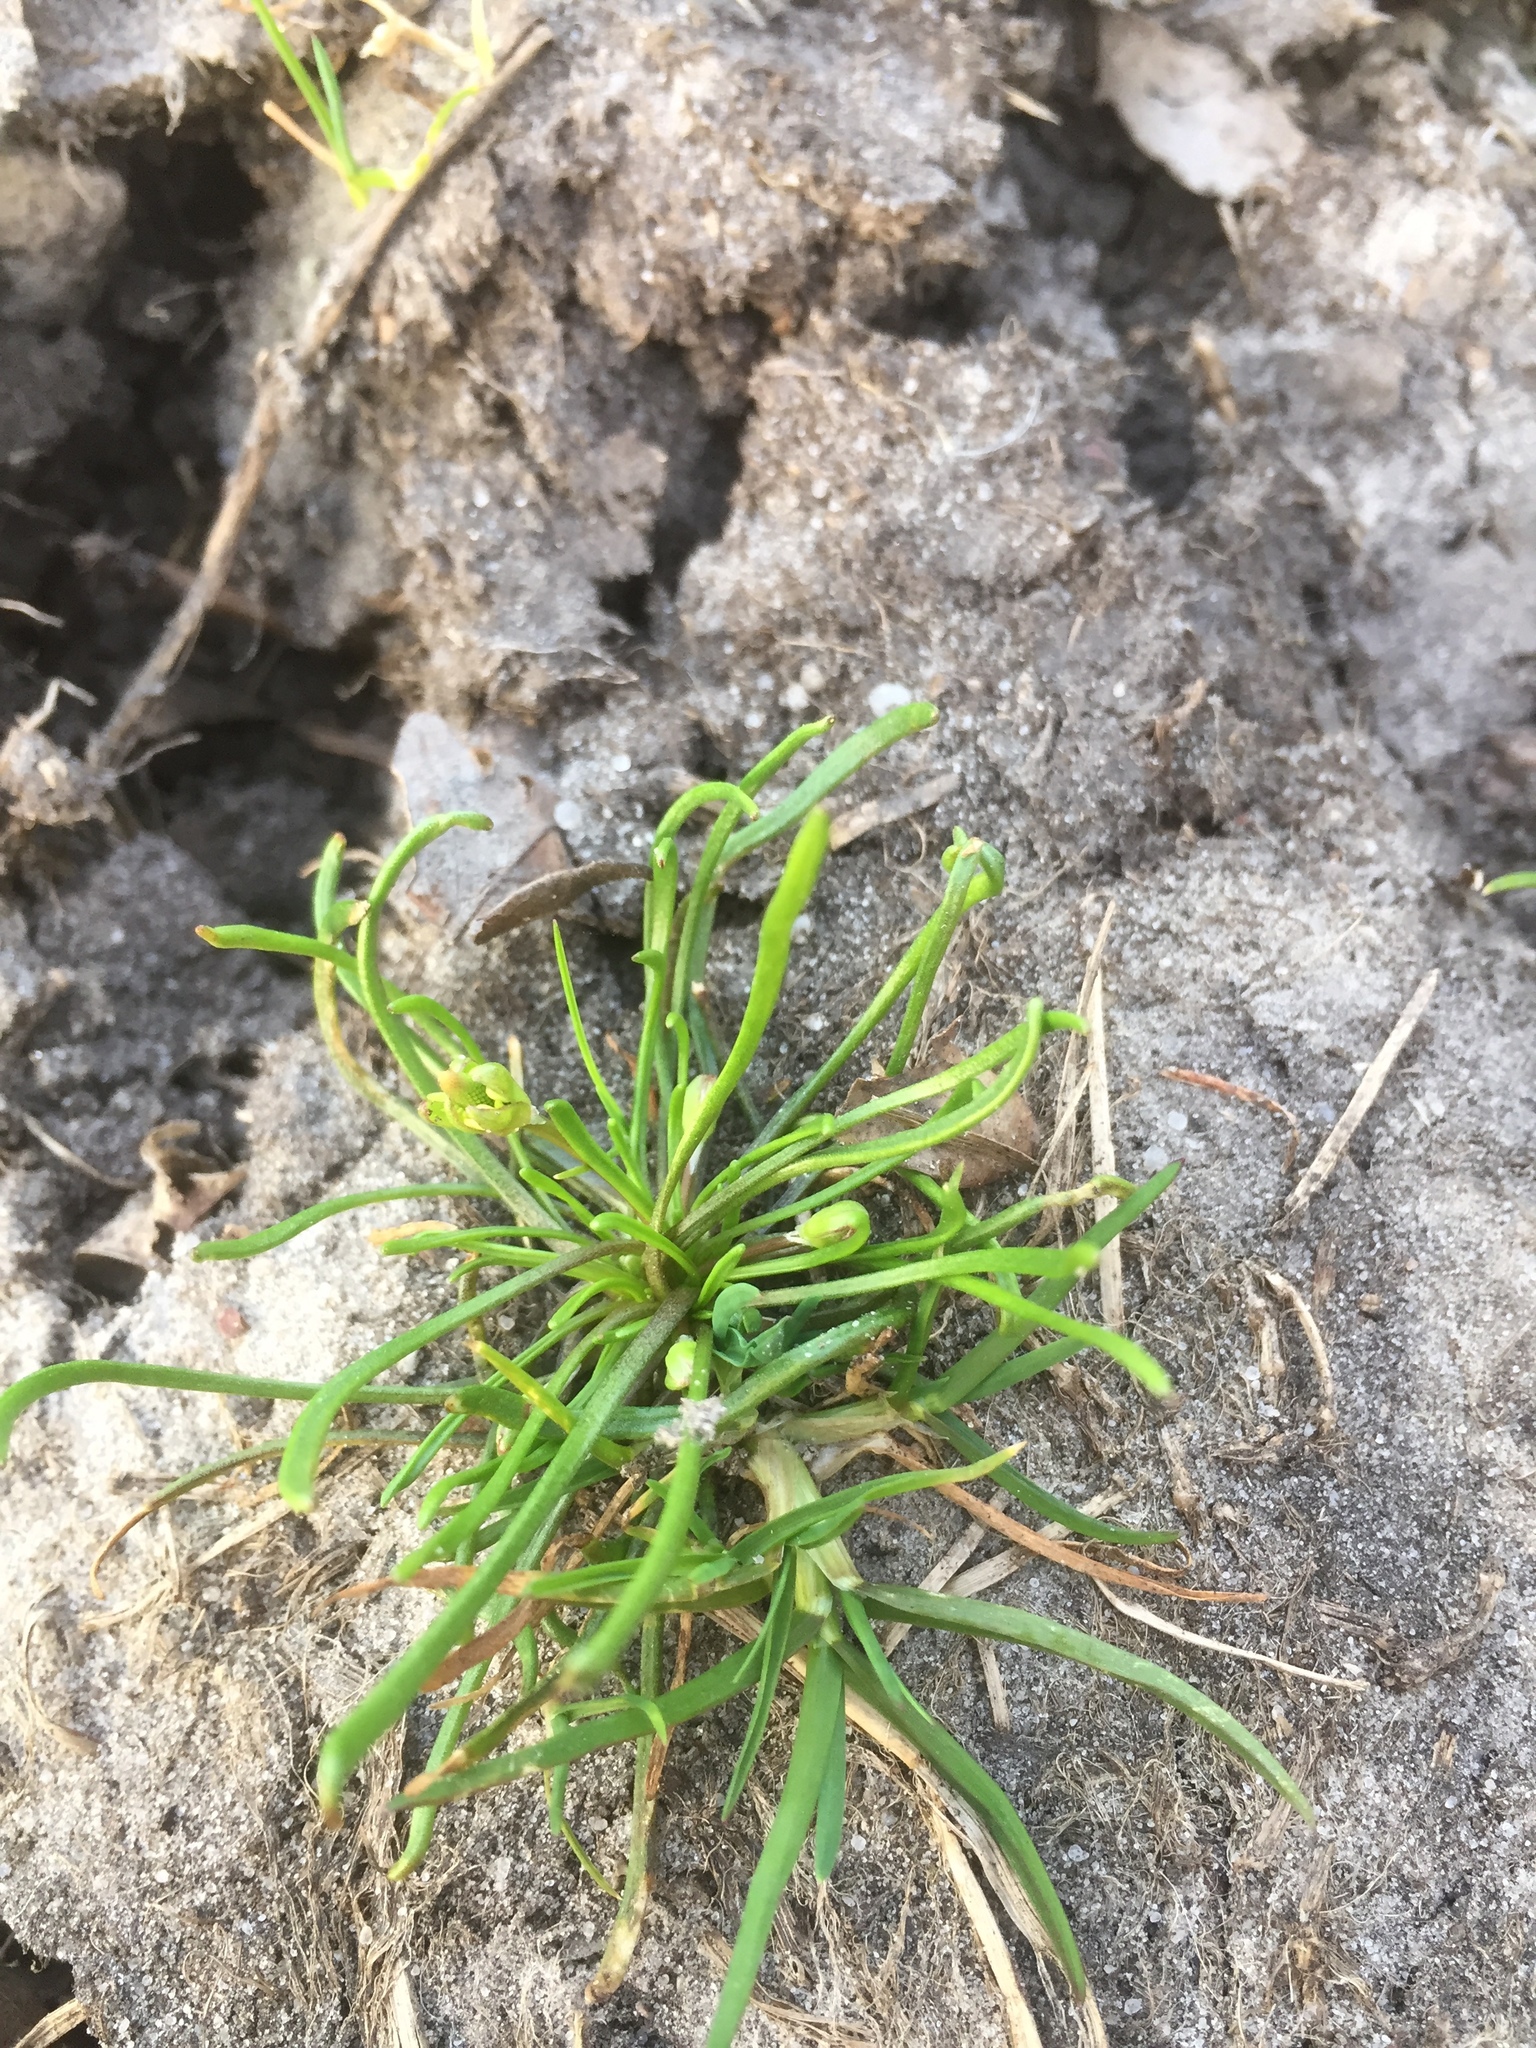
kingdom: Plantae
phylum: Tracheophyta
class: Magnoliopsida
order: Ranunculales
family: Ranunculaceae
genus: Myosurus
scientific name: Myosurus minimus
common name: Mousetail
